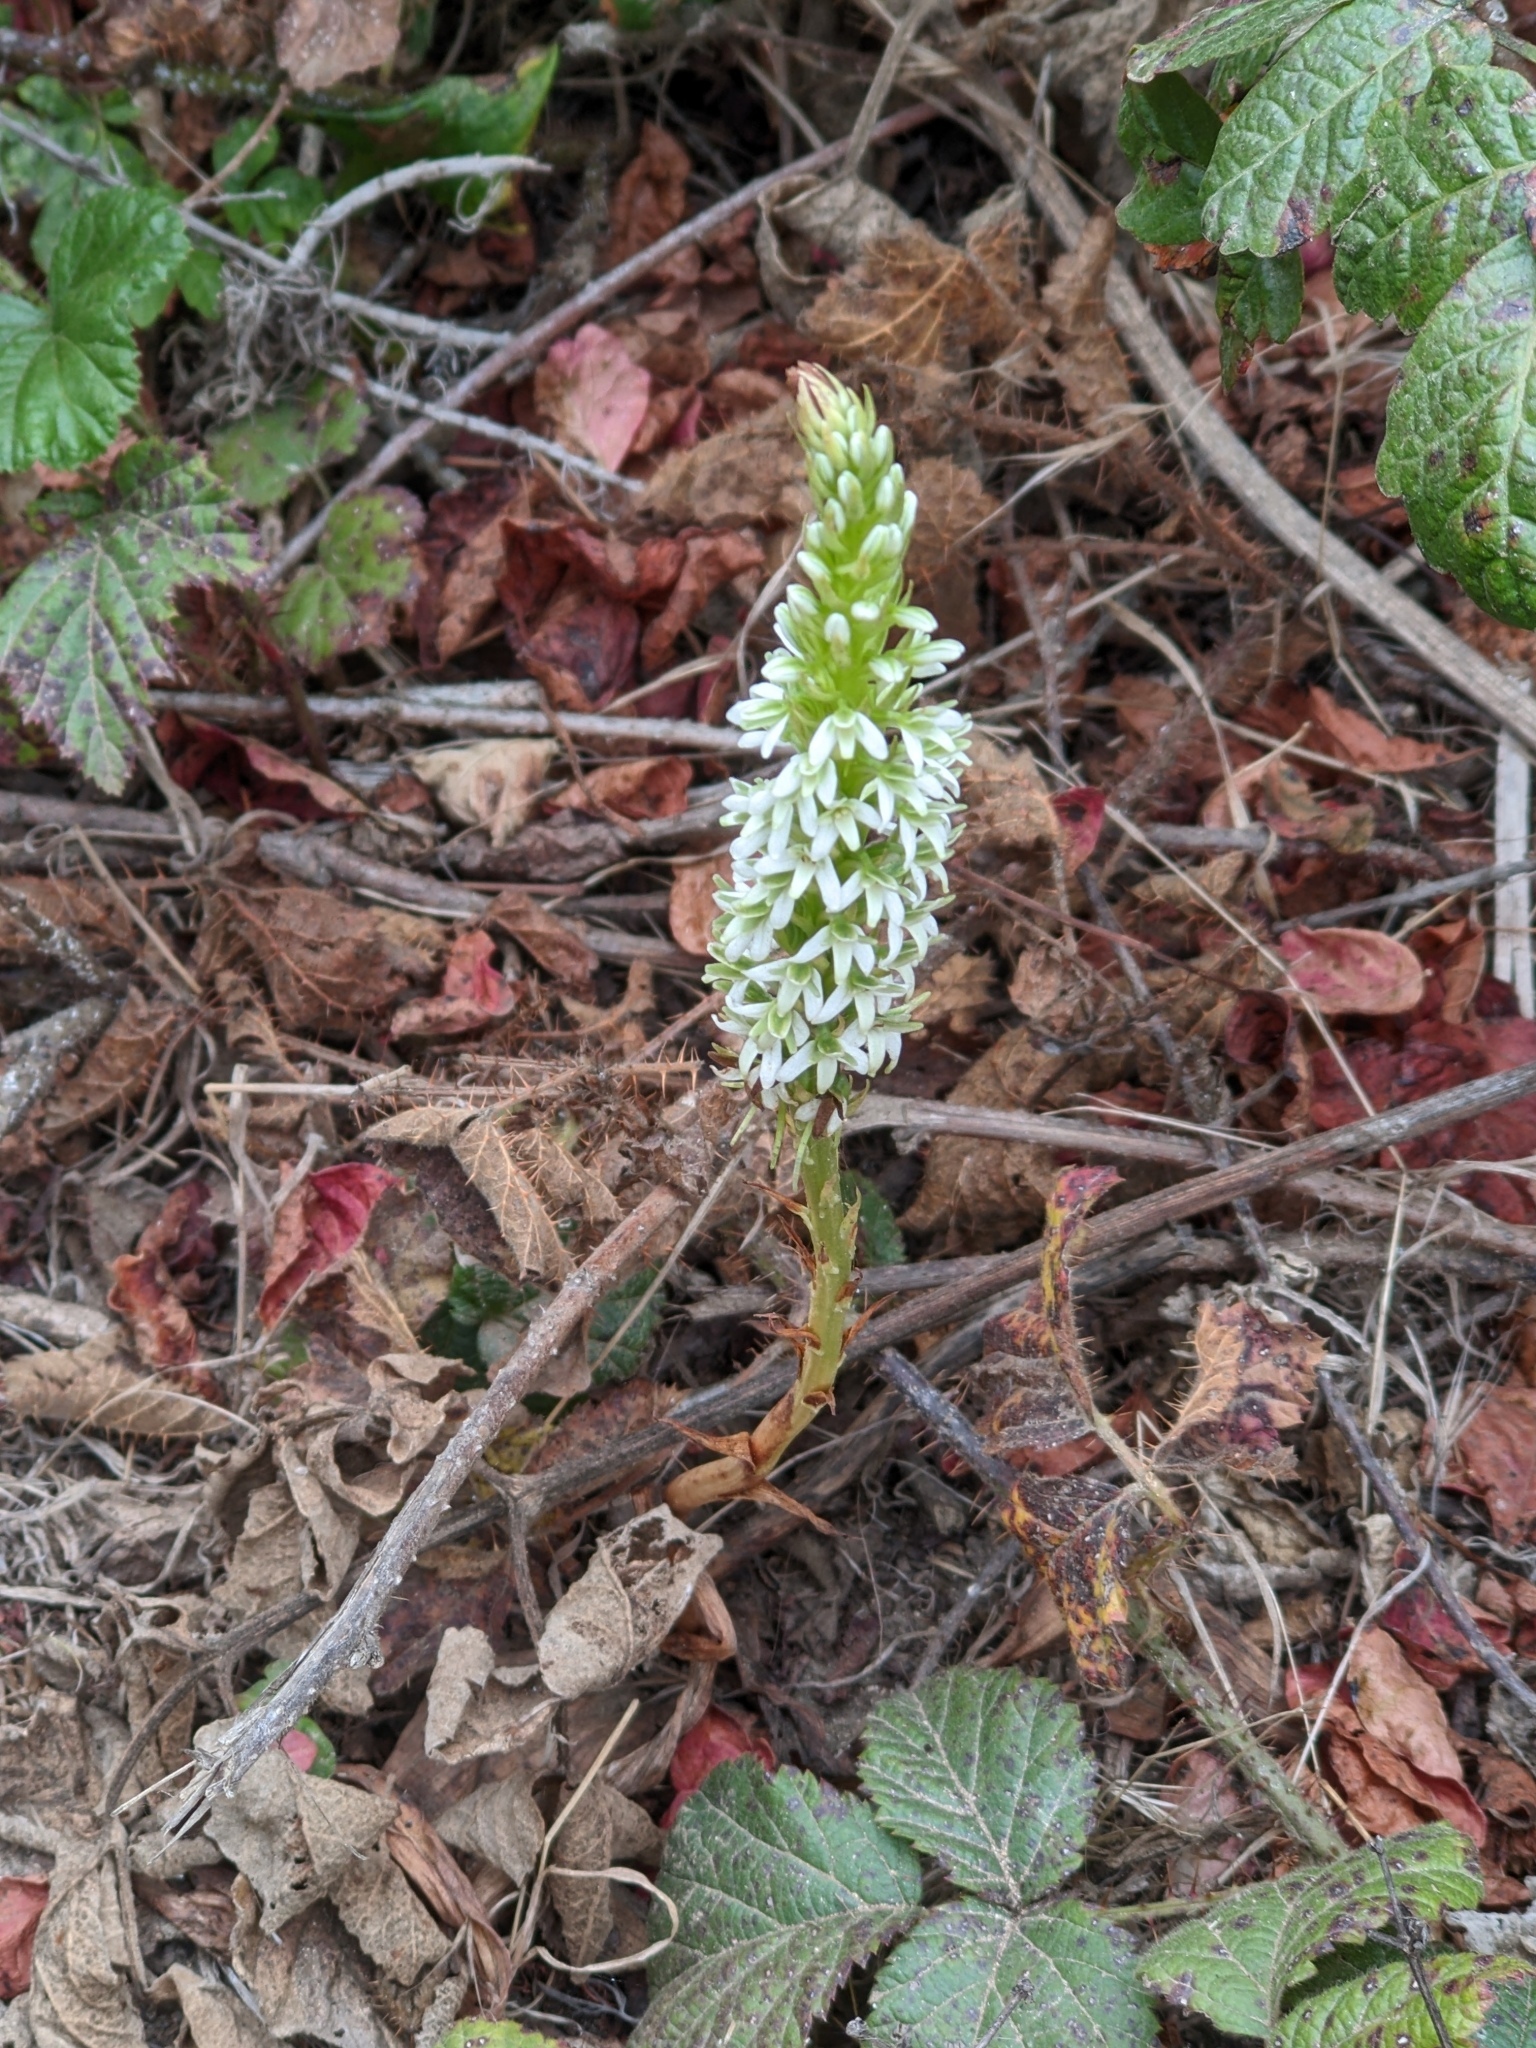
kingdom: Plantae
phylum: Tracheophyta
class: Liliopsida
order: Asparagales
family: Orchidaceae
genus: Platanthera
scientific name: Platanthera elegans
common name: Coast piperia
